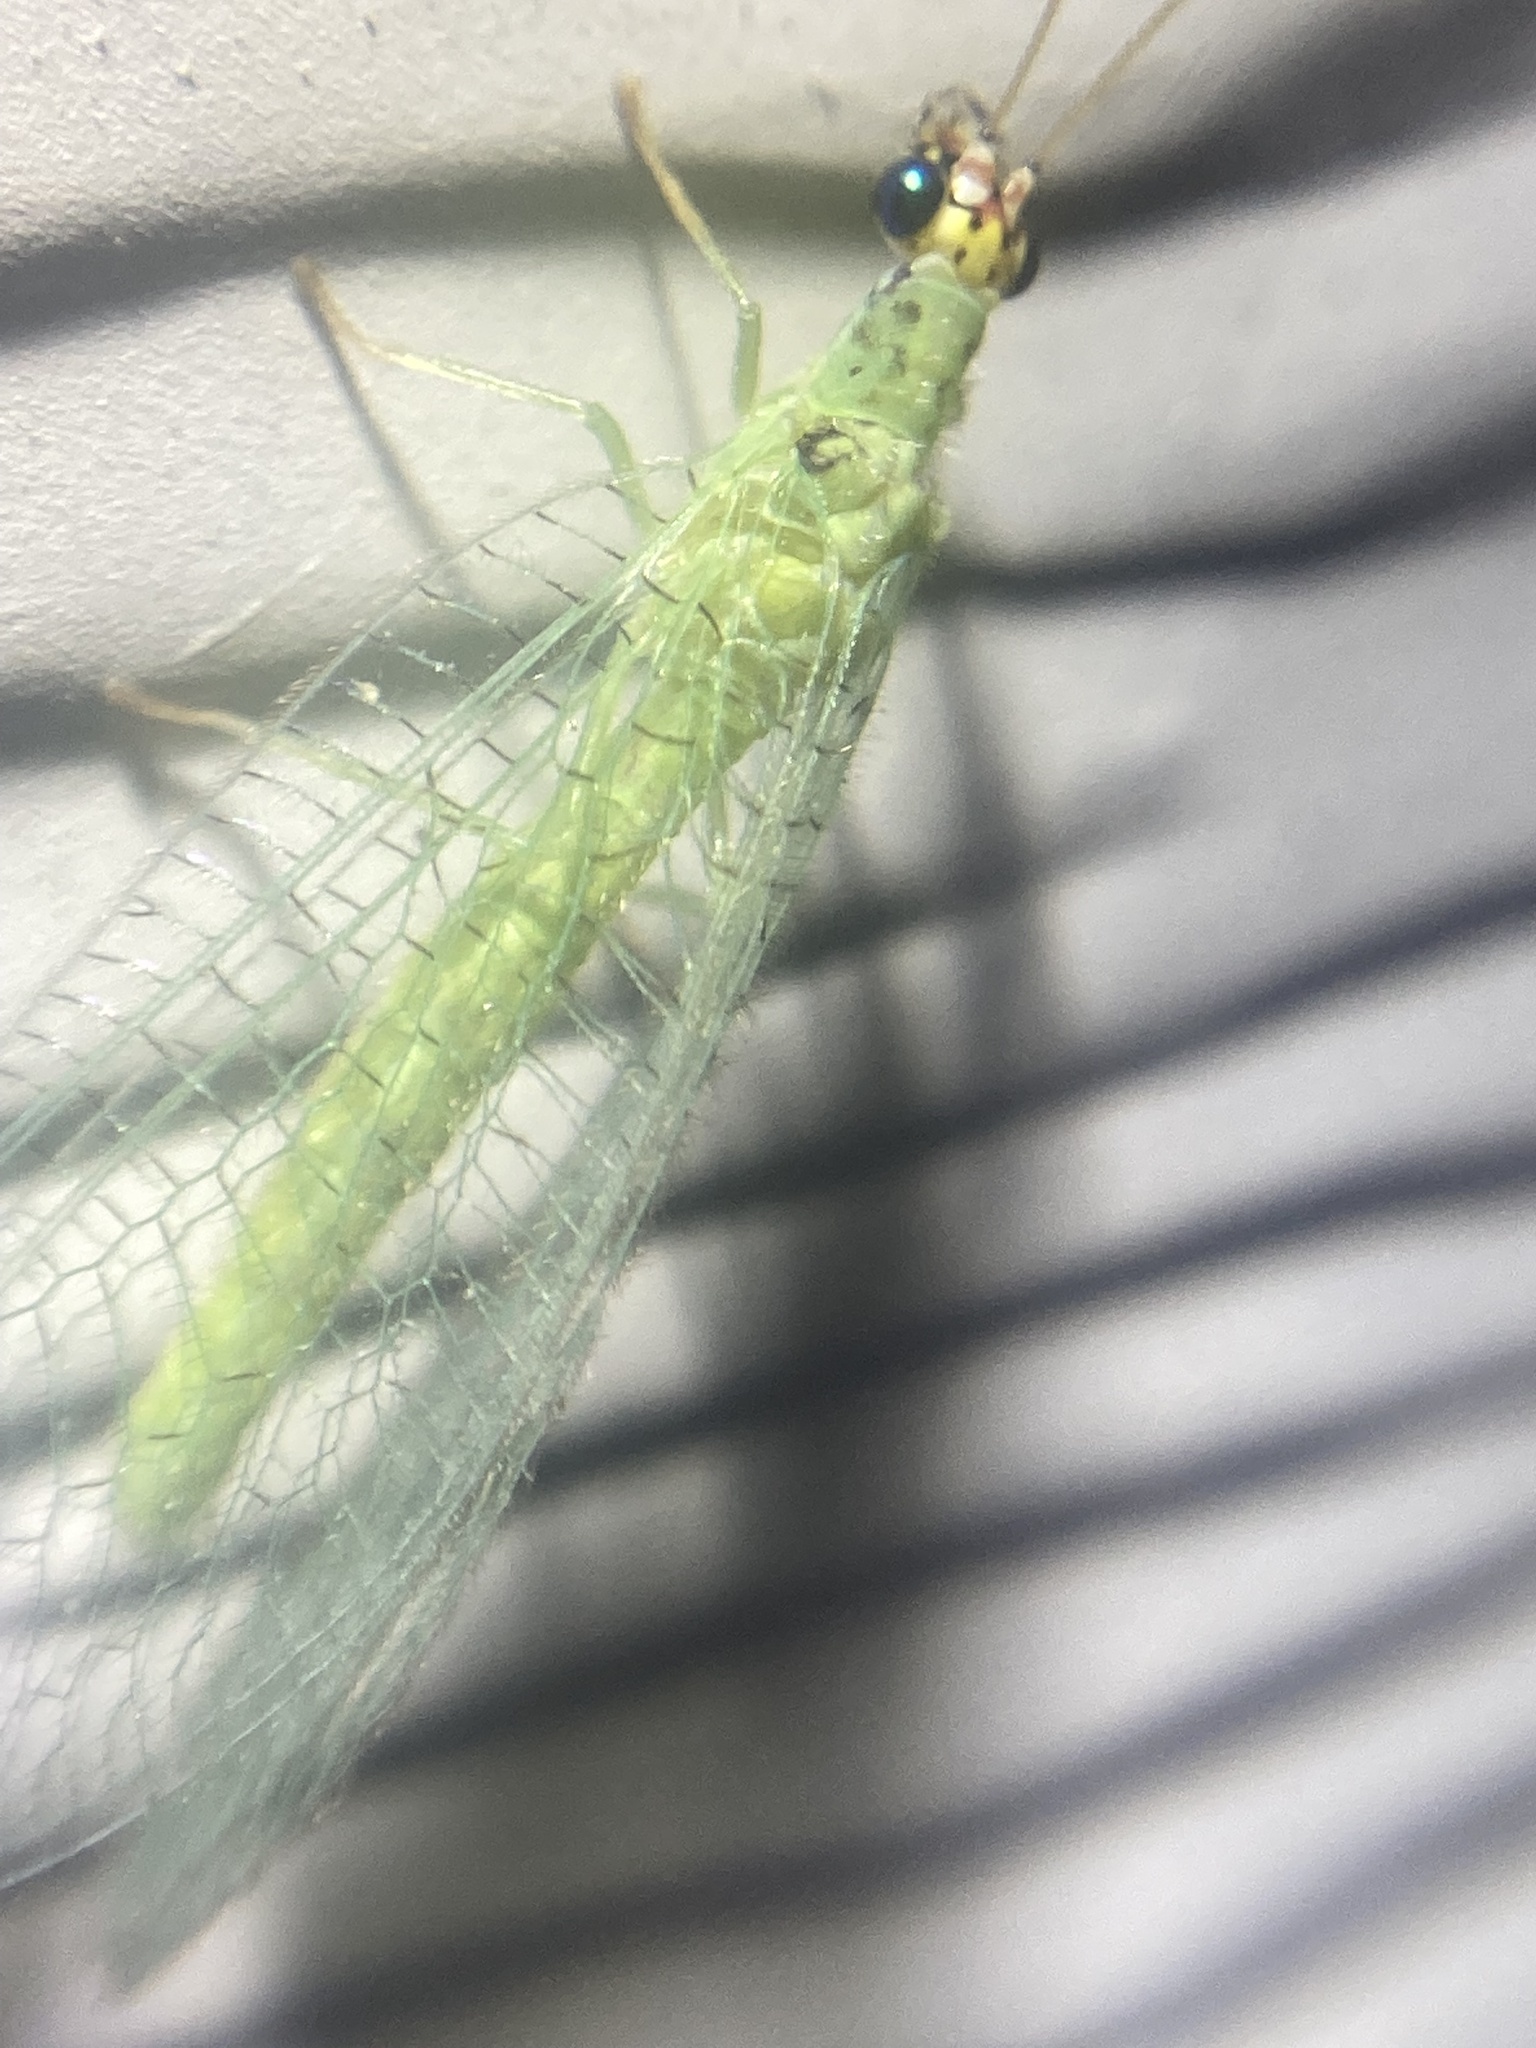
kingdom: Animalia
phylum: Arthropoda
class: Insecta
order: Neuroptera
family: Chrysopidae
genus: Chrysopa
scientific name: Chrysopa oculata
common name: Golden-eyed lacewing
